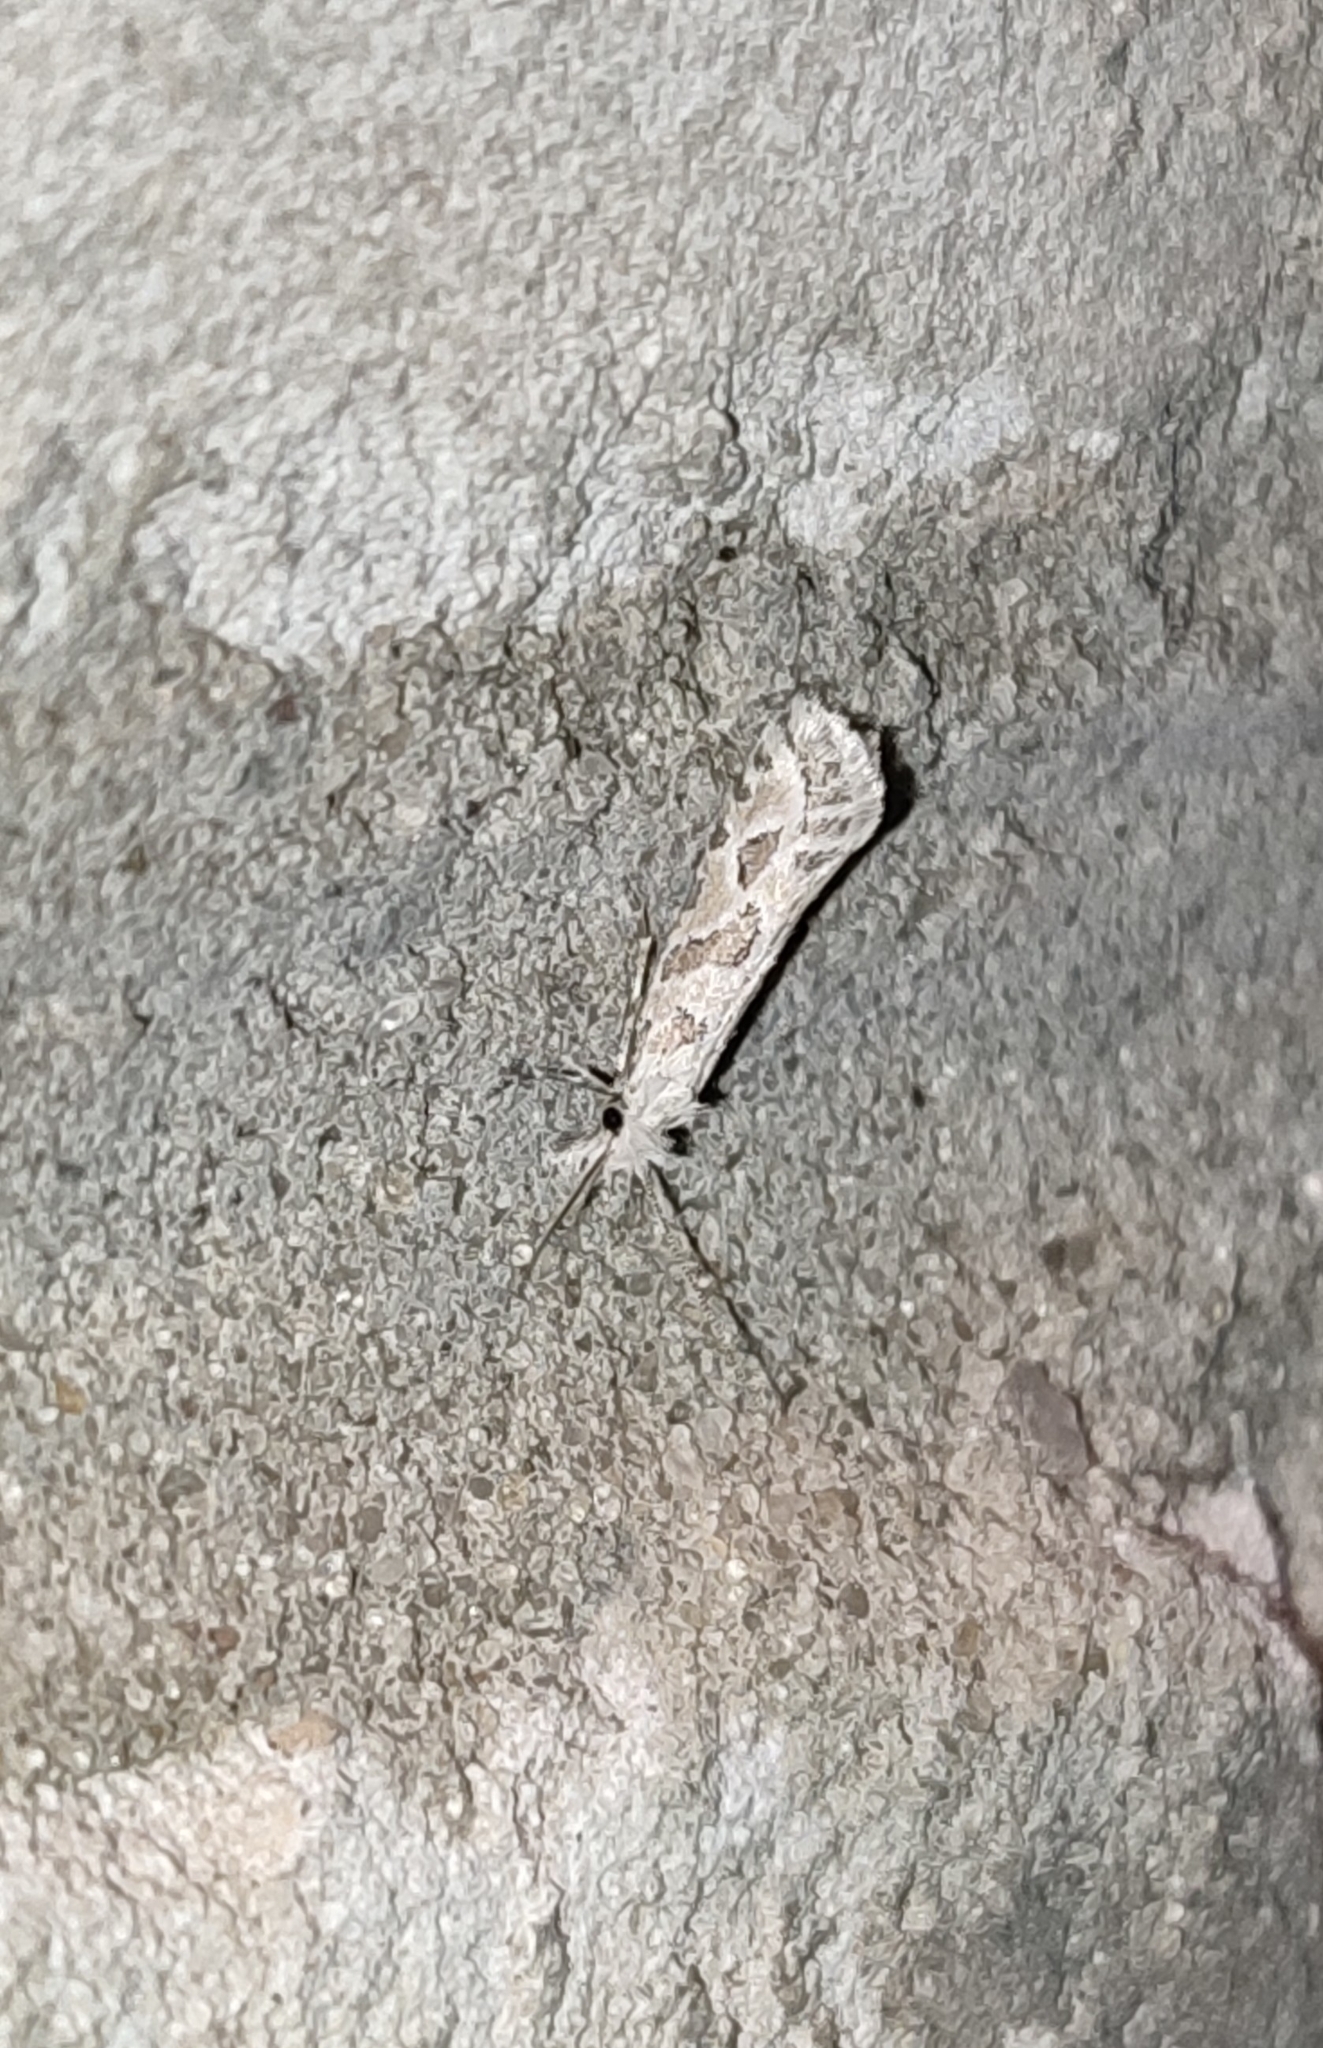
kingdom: Animalia
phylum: Arthropoda
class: Insecta
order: Lepidoptera
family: Tineidae
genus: Ateliotum
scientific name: Ateliotum hungaricellum
